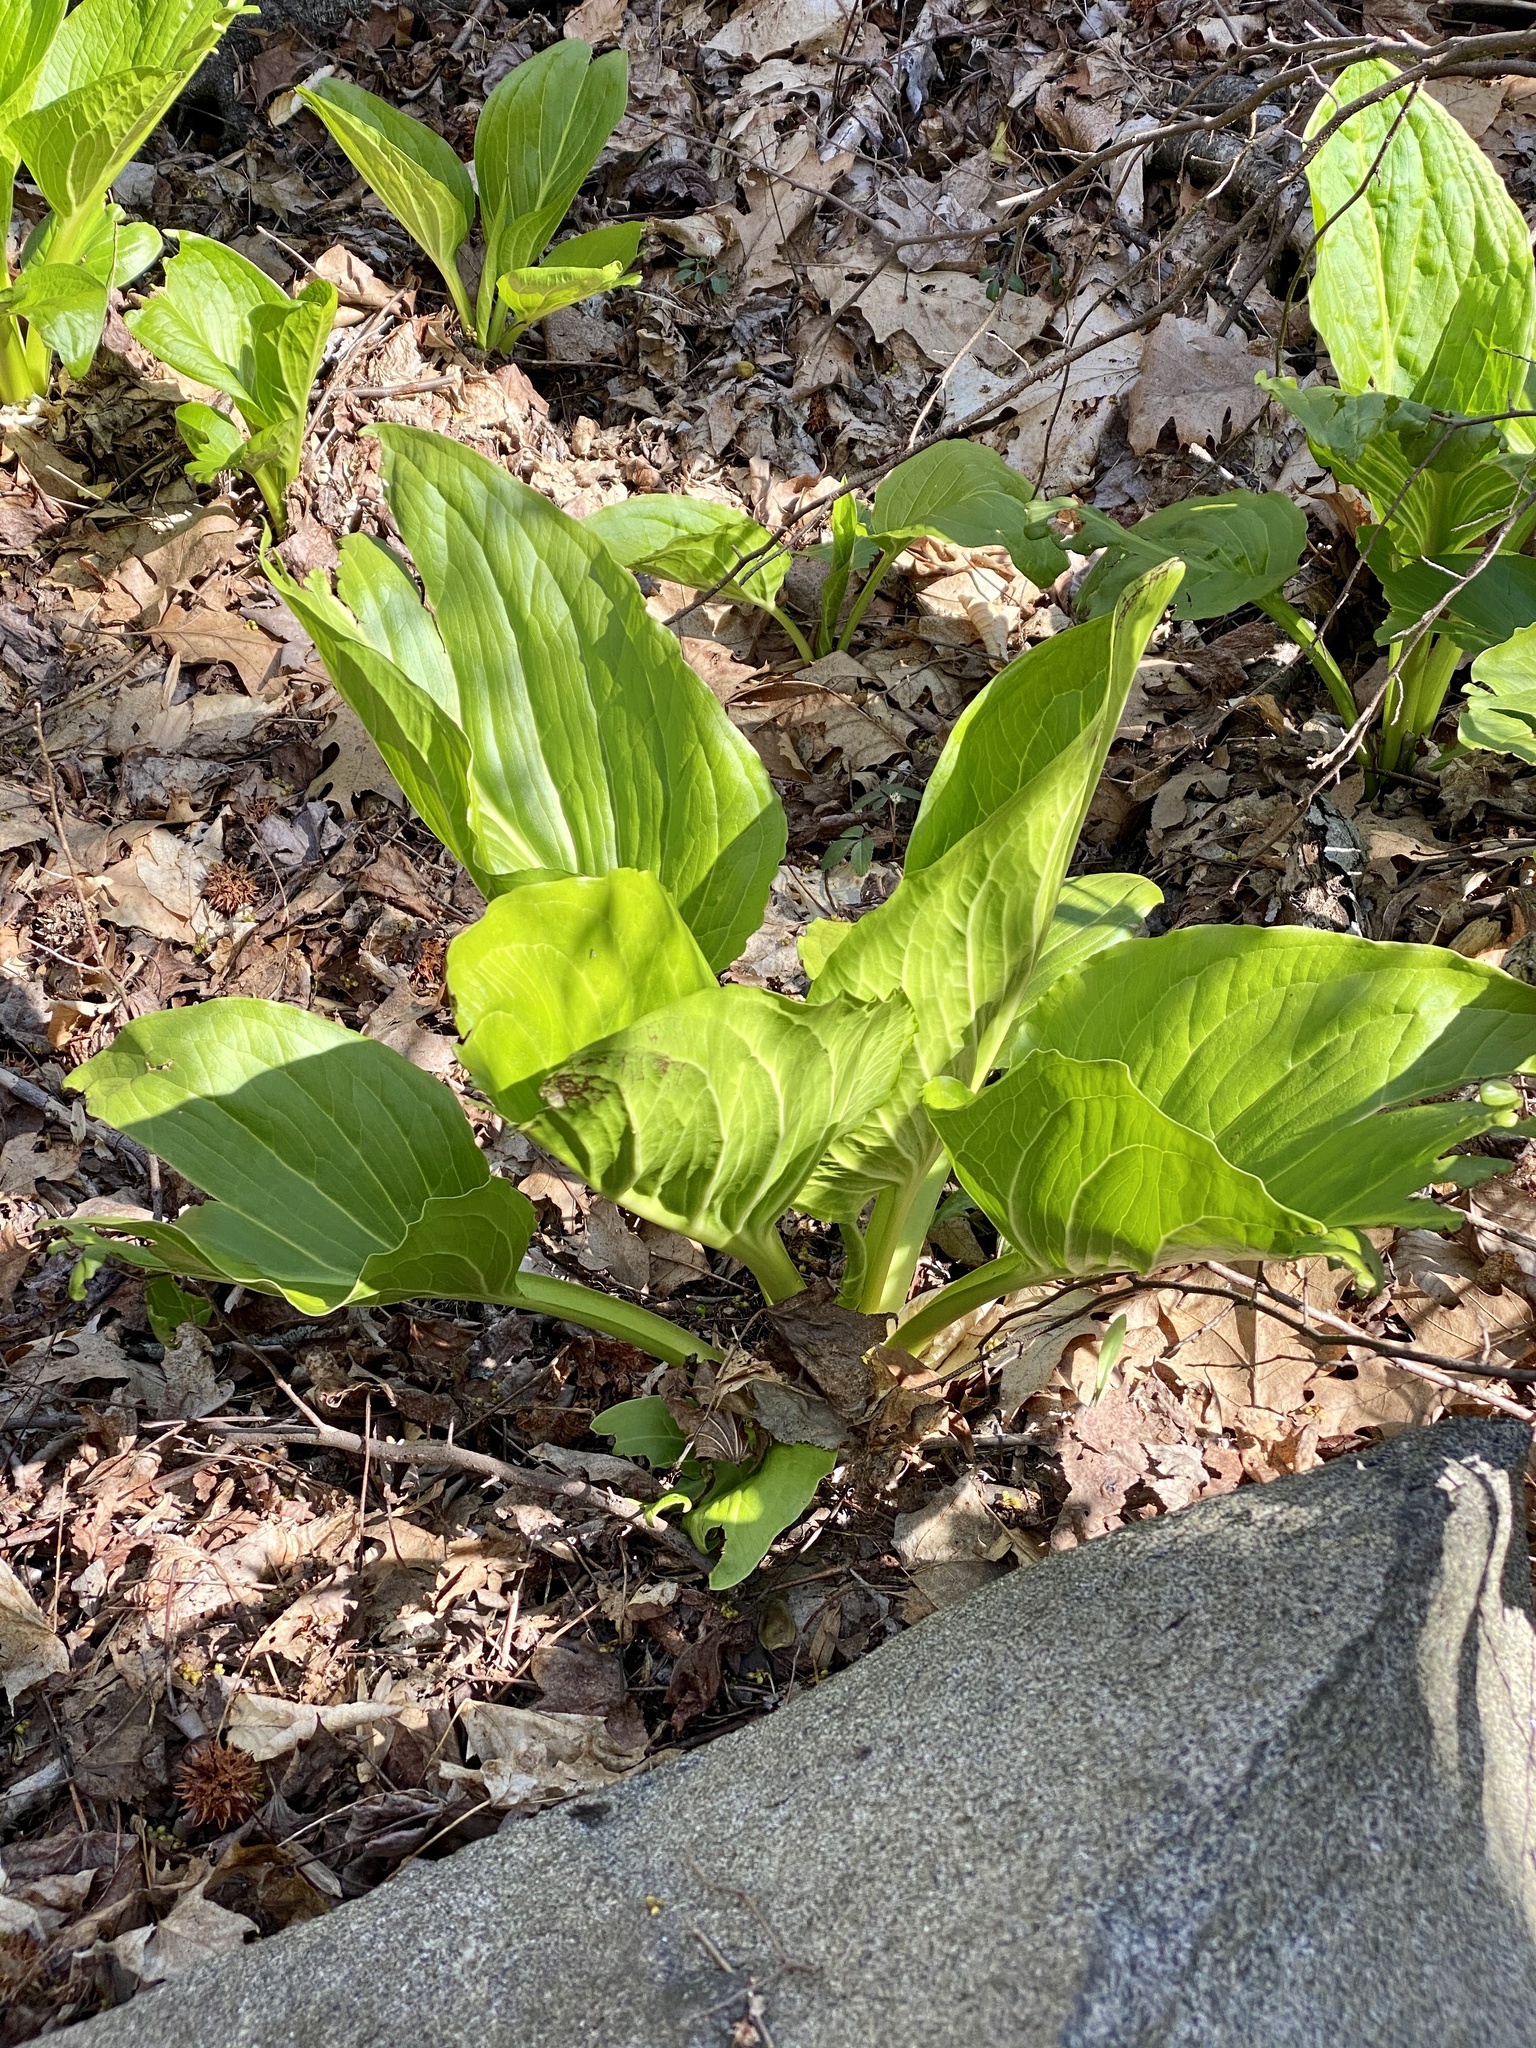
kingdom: Plantae
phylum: Tracheophyta
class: Liliopsida
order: Alismatales
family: Araceae
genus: Symplocarpus
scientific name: Symplocarpus foetidus
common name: Eastern skunk cabbage
